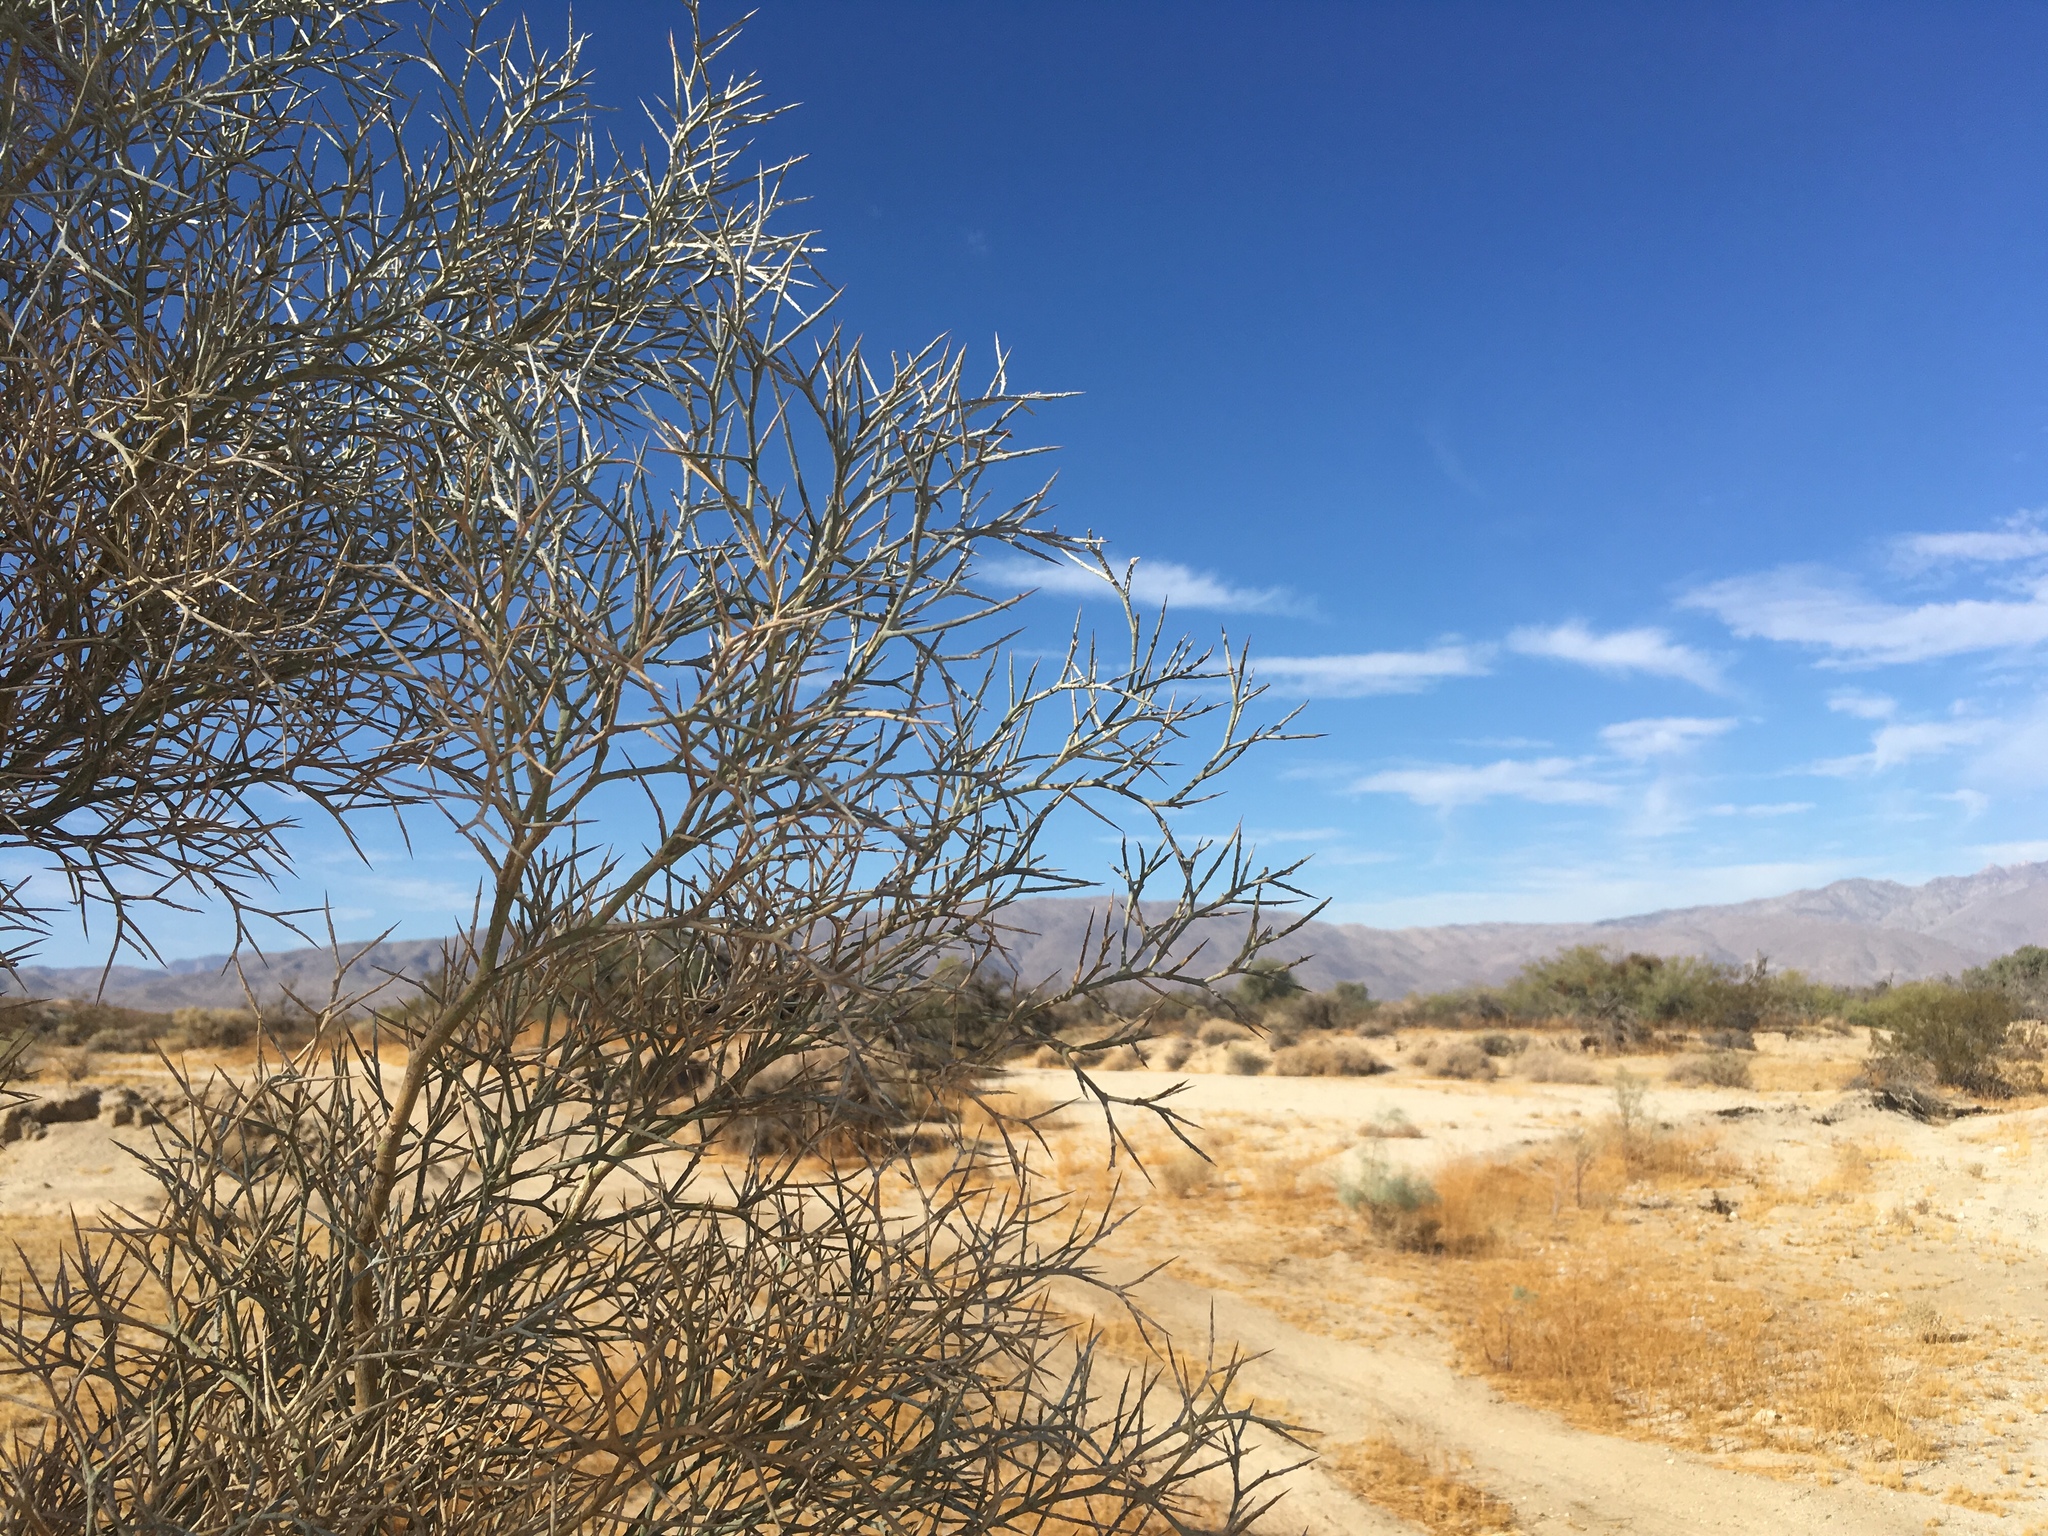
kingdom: Plantae
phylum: Tracheophyta
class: Magnoliopsida
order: Fabales
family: Fabaceae
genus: Psorothamnus
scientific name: Psorothamnus spinosus
